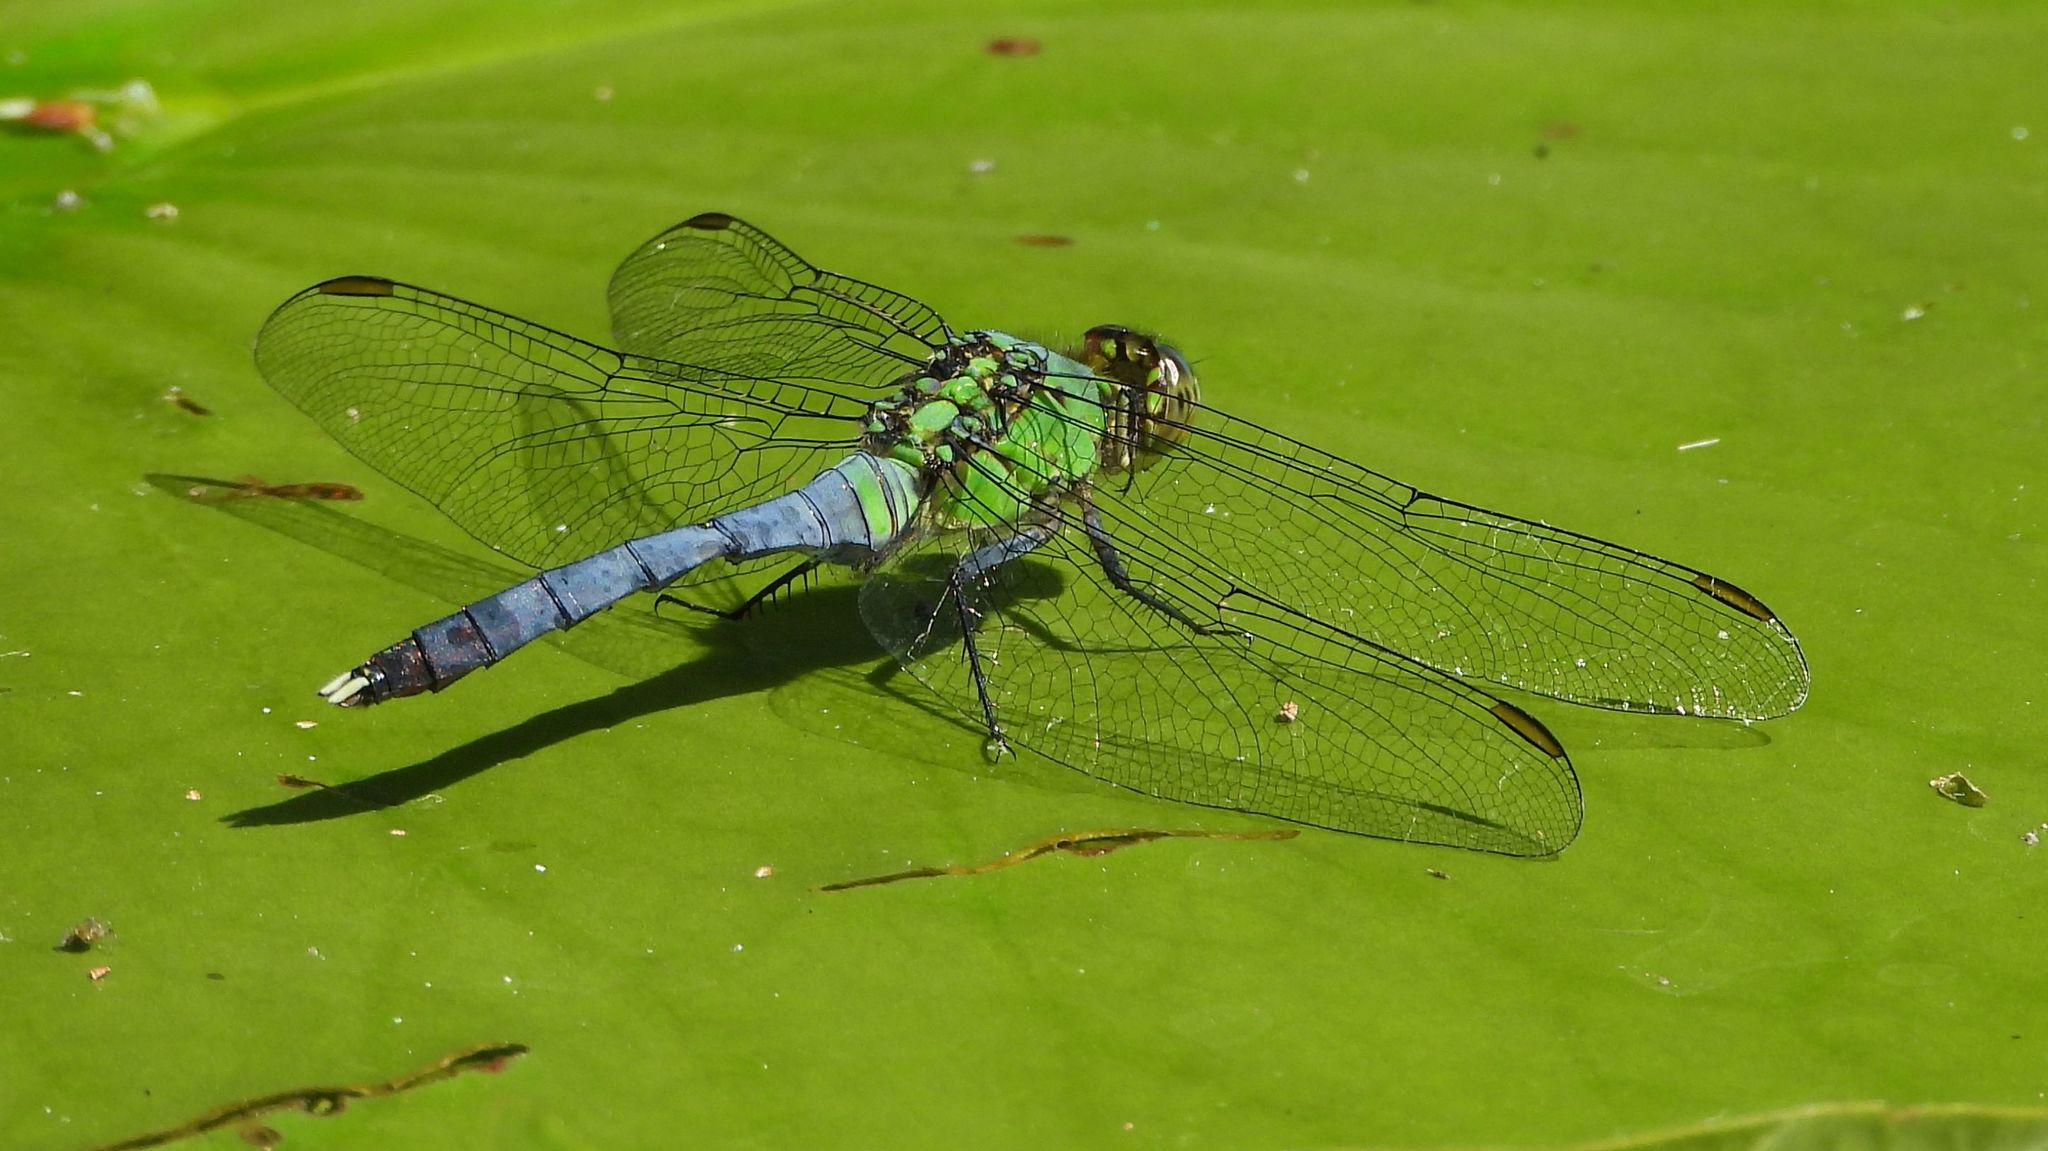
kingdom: Animalia
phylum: Arthropoda
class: Insecta
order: Odonata
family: Libellulidae
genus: Erythemis
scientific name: Erythemis simplicicollis
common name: Eastern pondhawk
